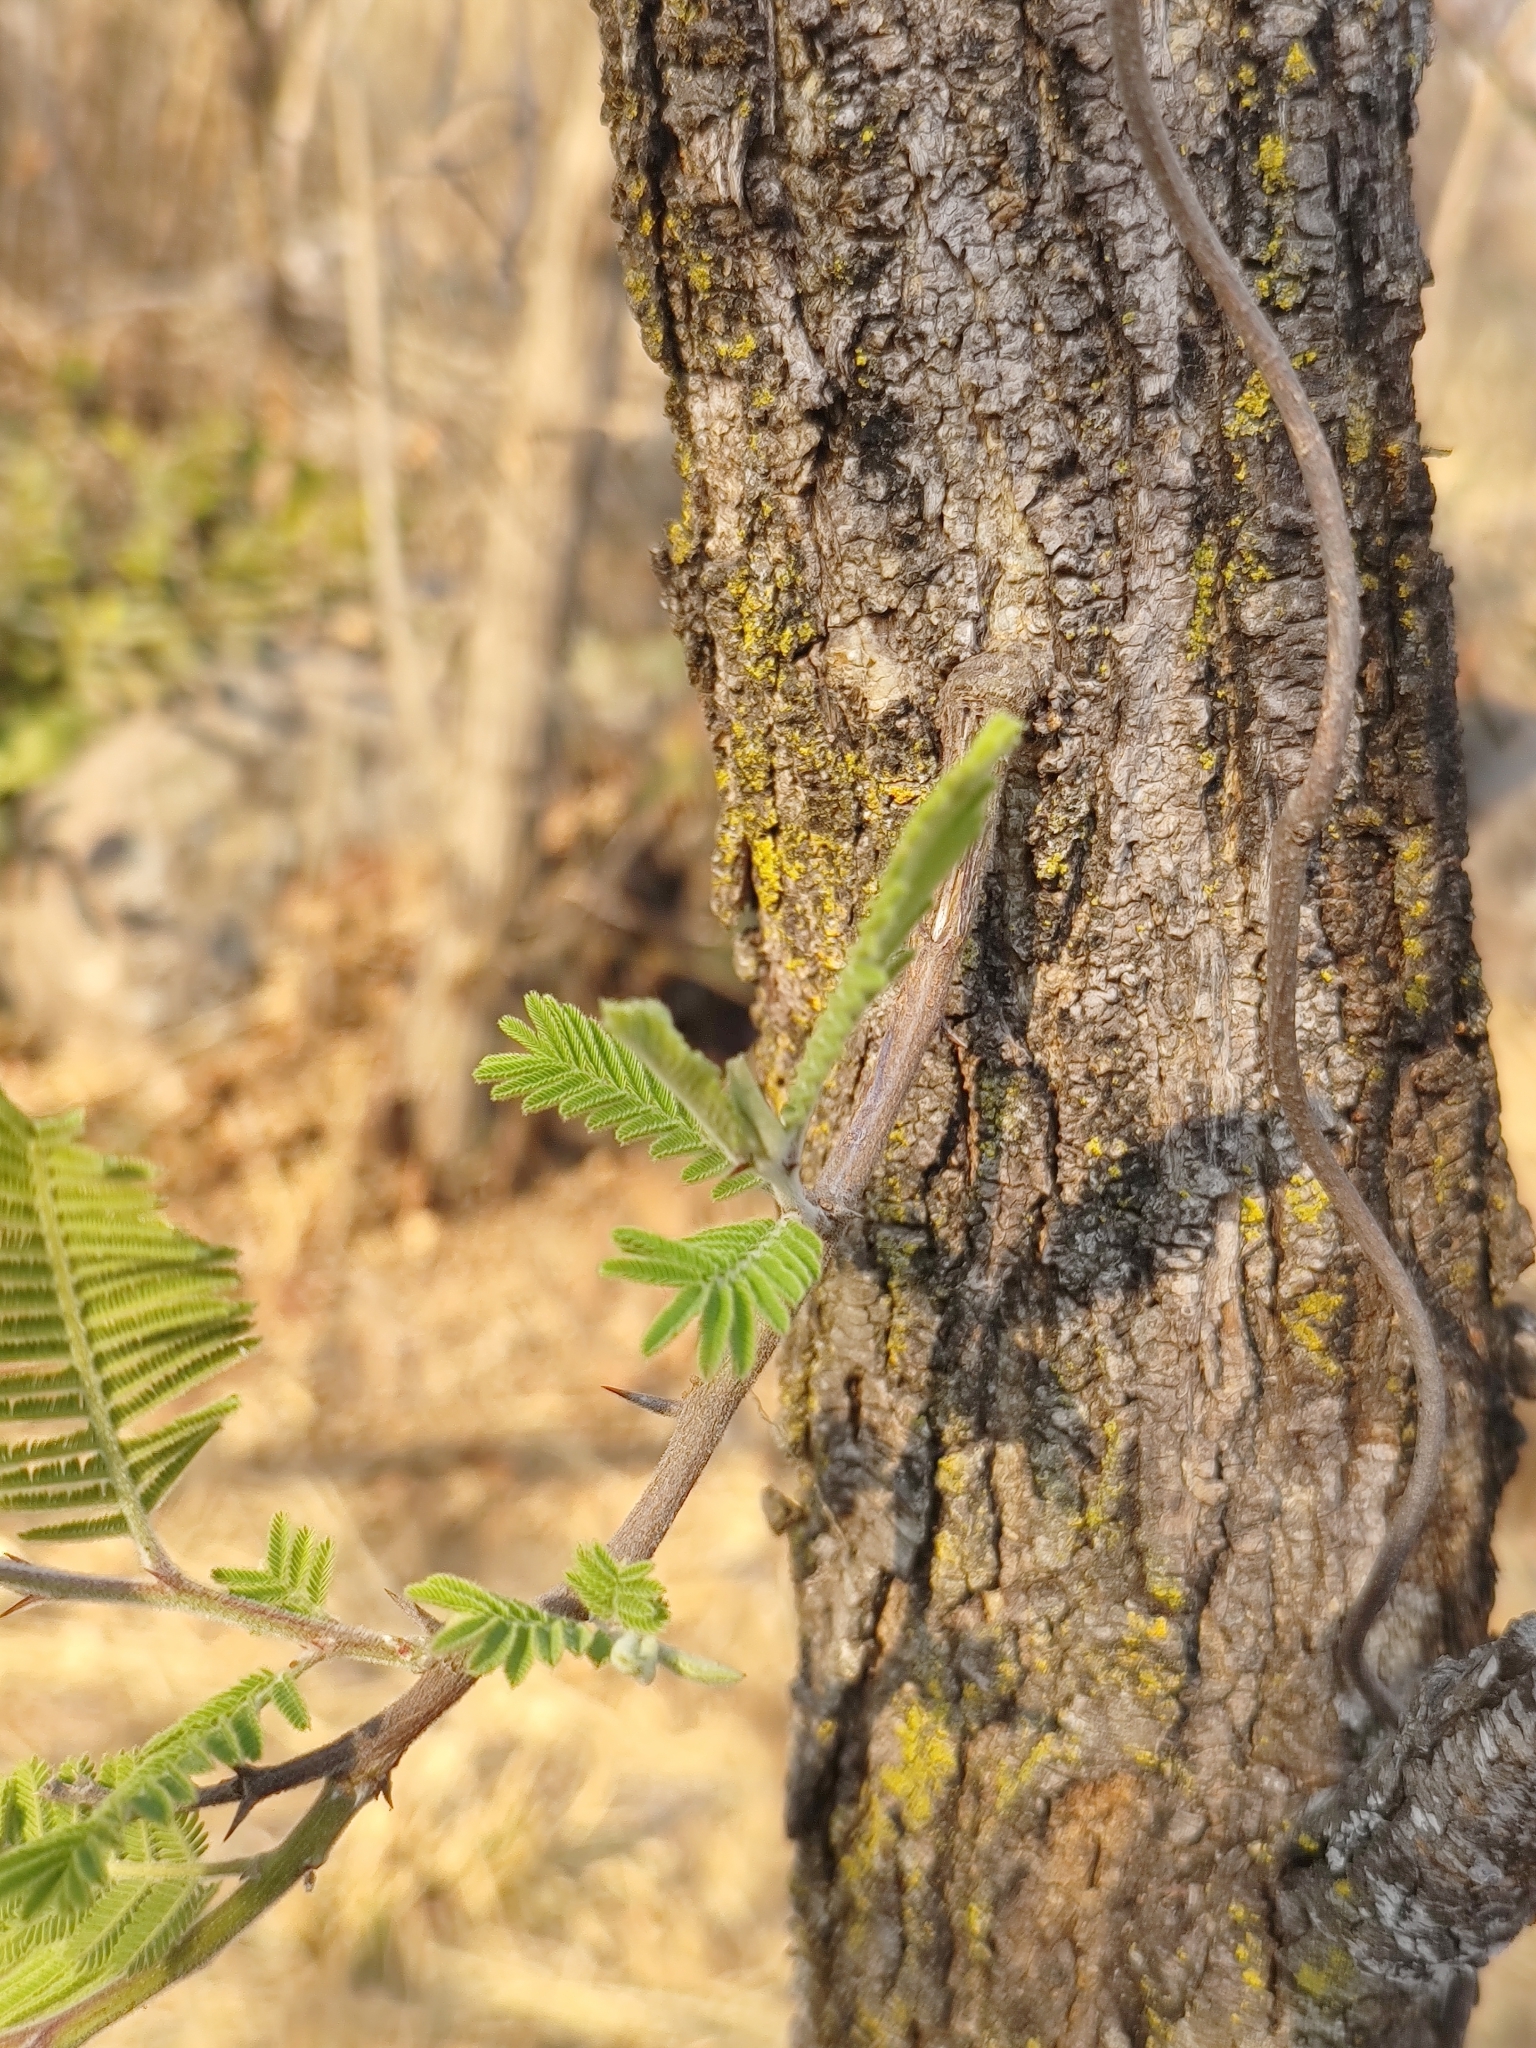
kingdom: Plantae
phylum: Tracheophyta
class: Magnoliopsida
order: Fabales
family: Fabaceae
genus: Vachellia
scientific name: Vachellia pennatula
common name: Fern-leaf acacia
